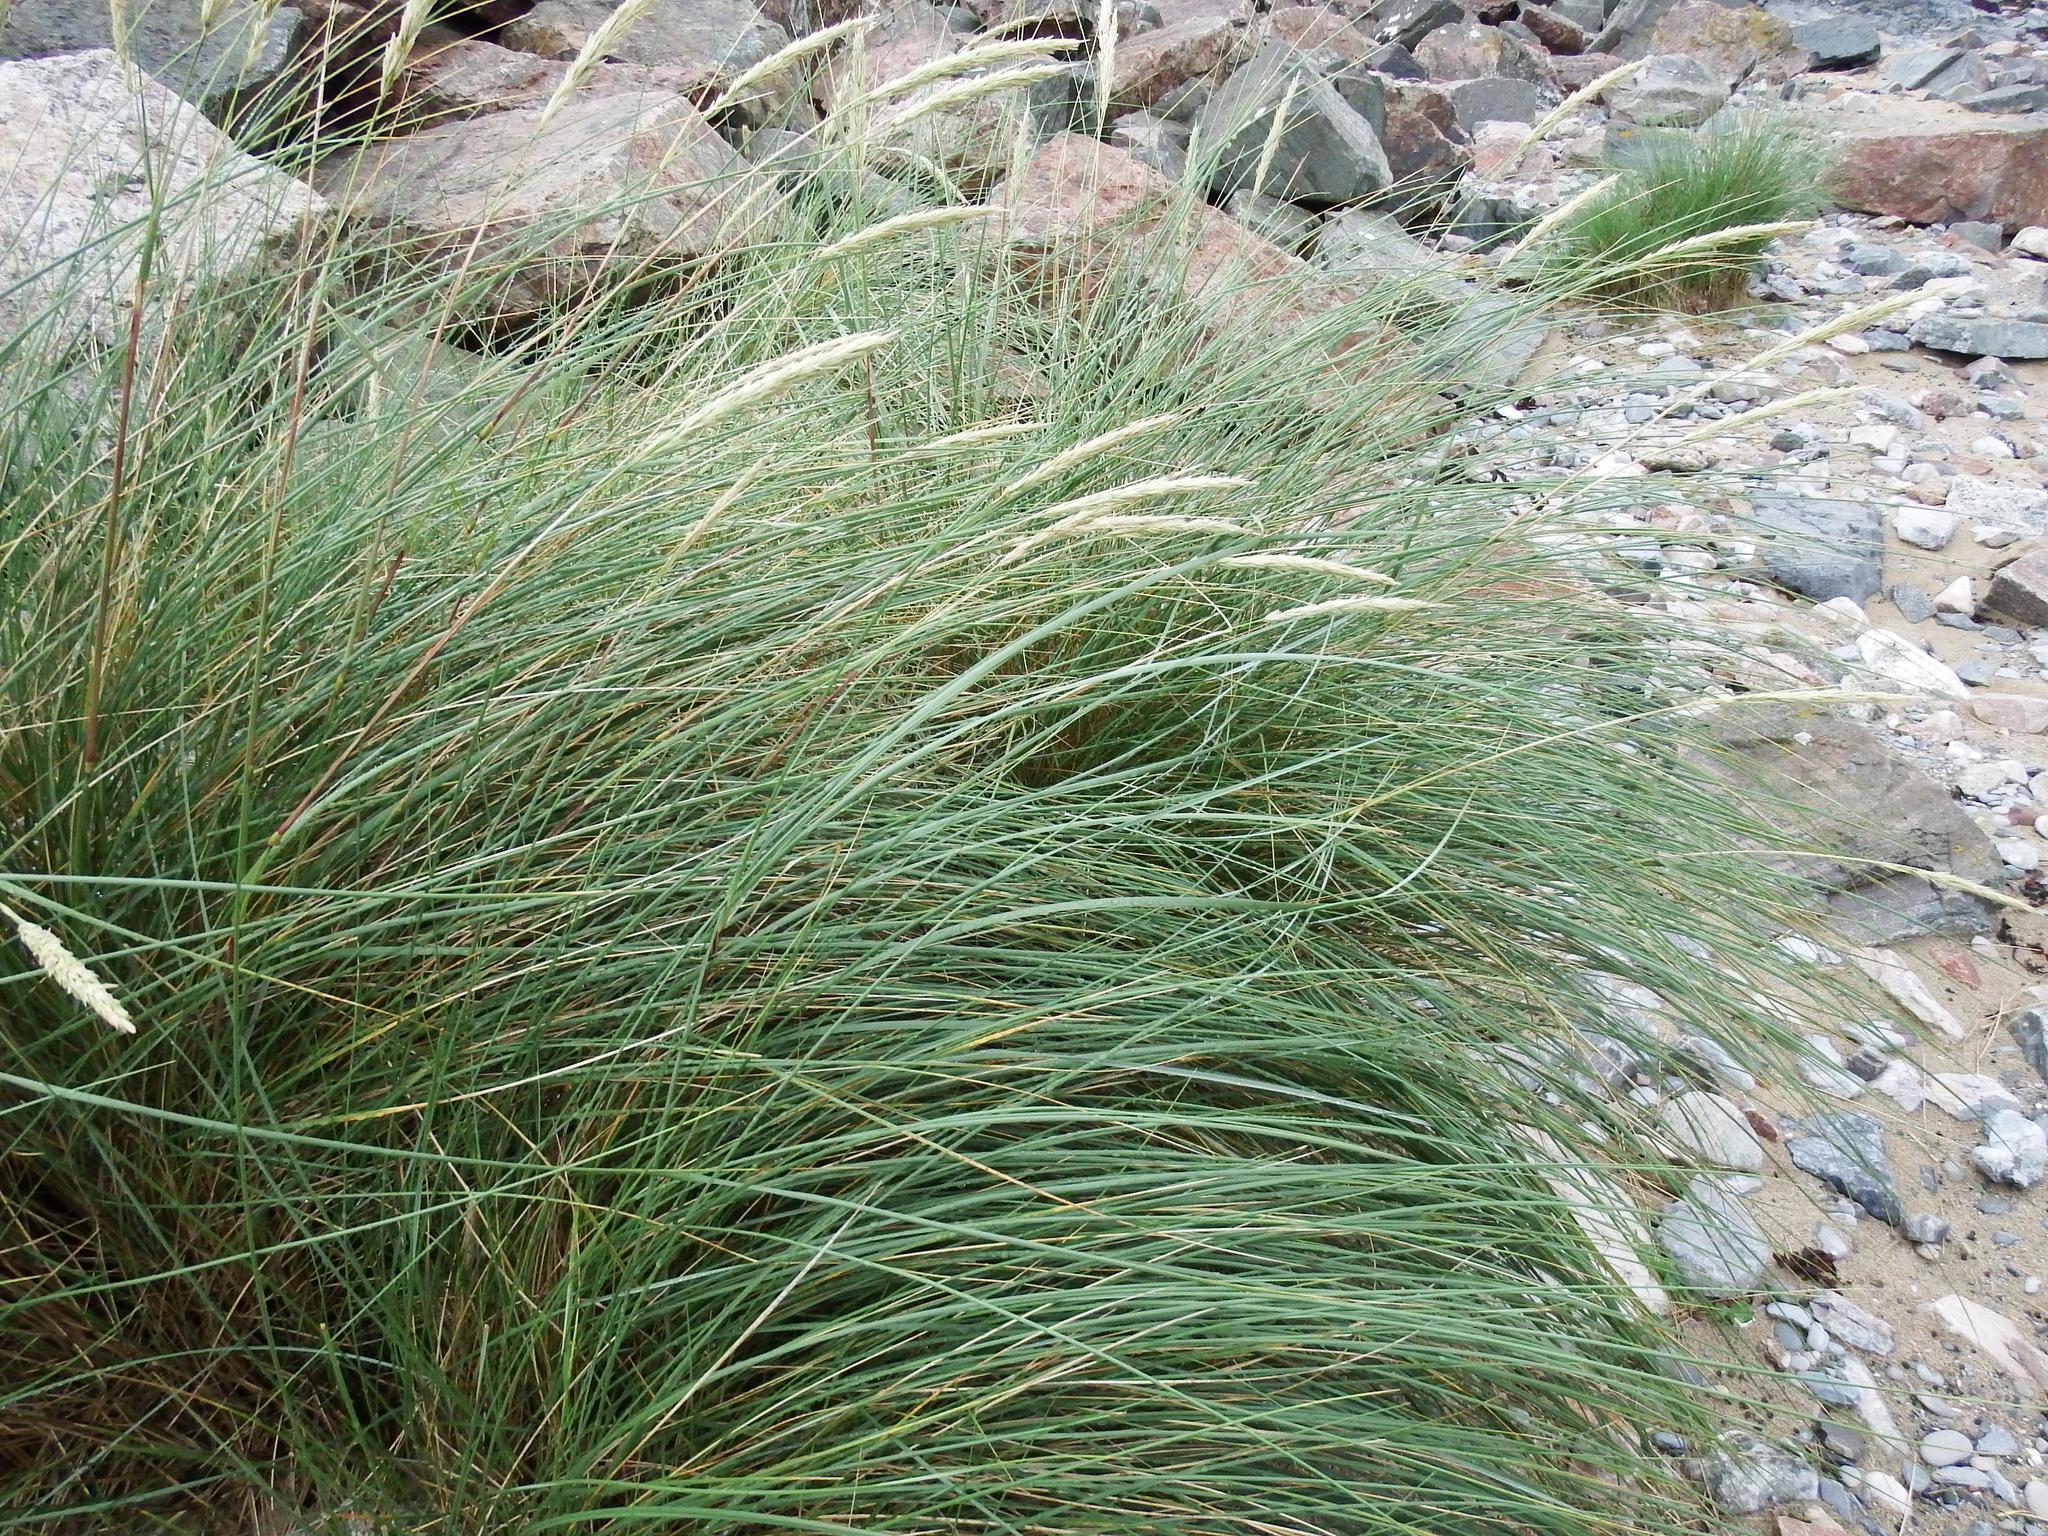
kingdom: Plantae
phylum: Tracheophyta
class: Liliopsida
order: Poales
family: Poaceae
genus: Calamagrostis
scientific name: Calamagrostis arenaria
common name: European beachgrass
